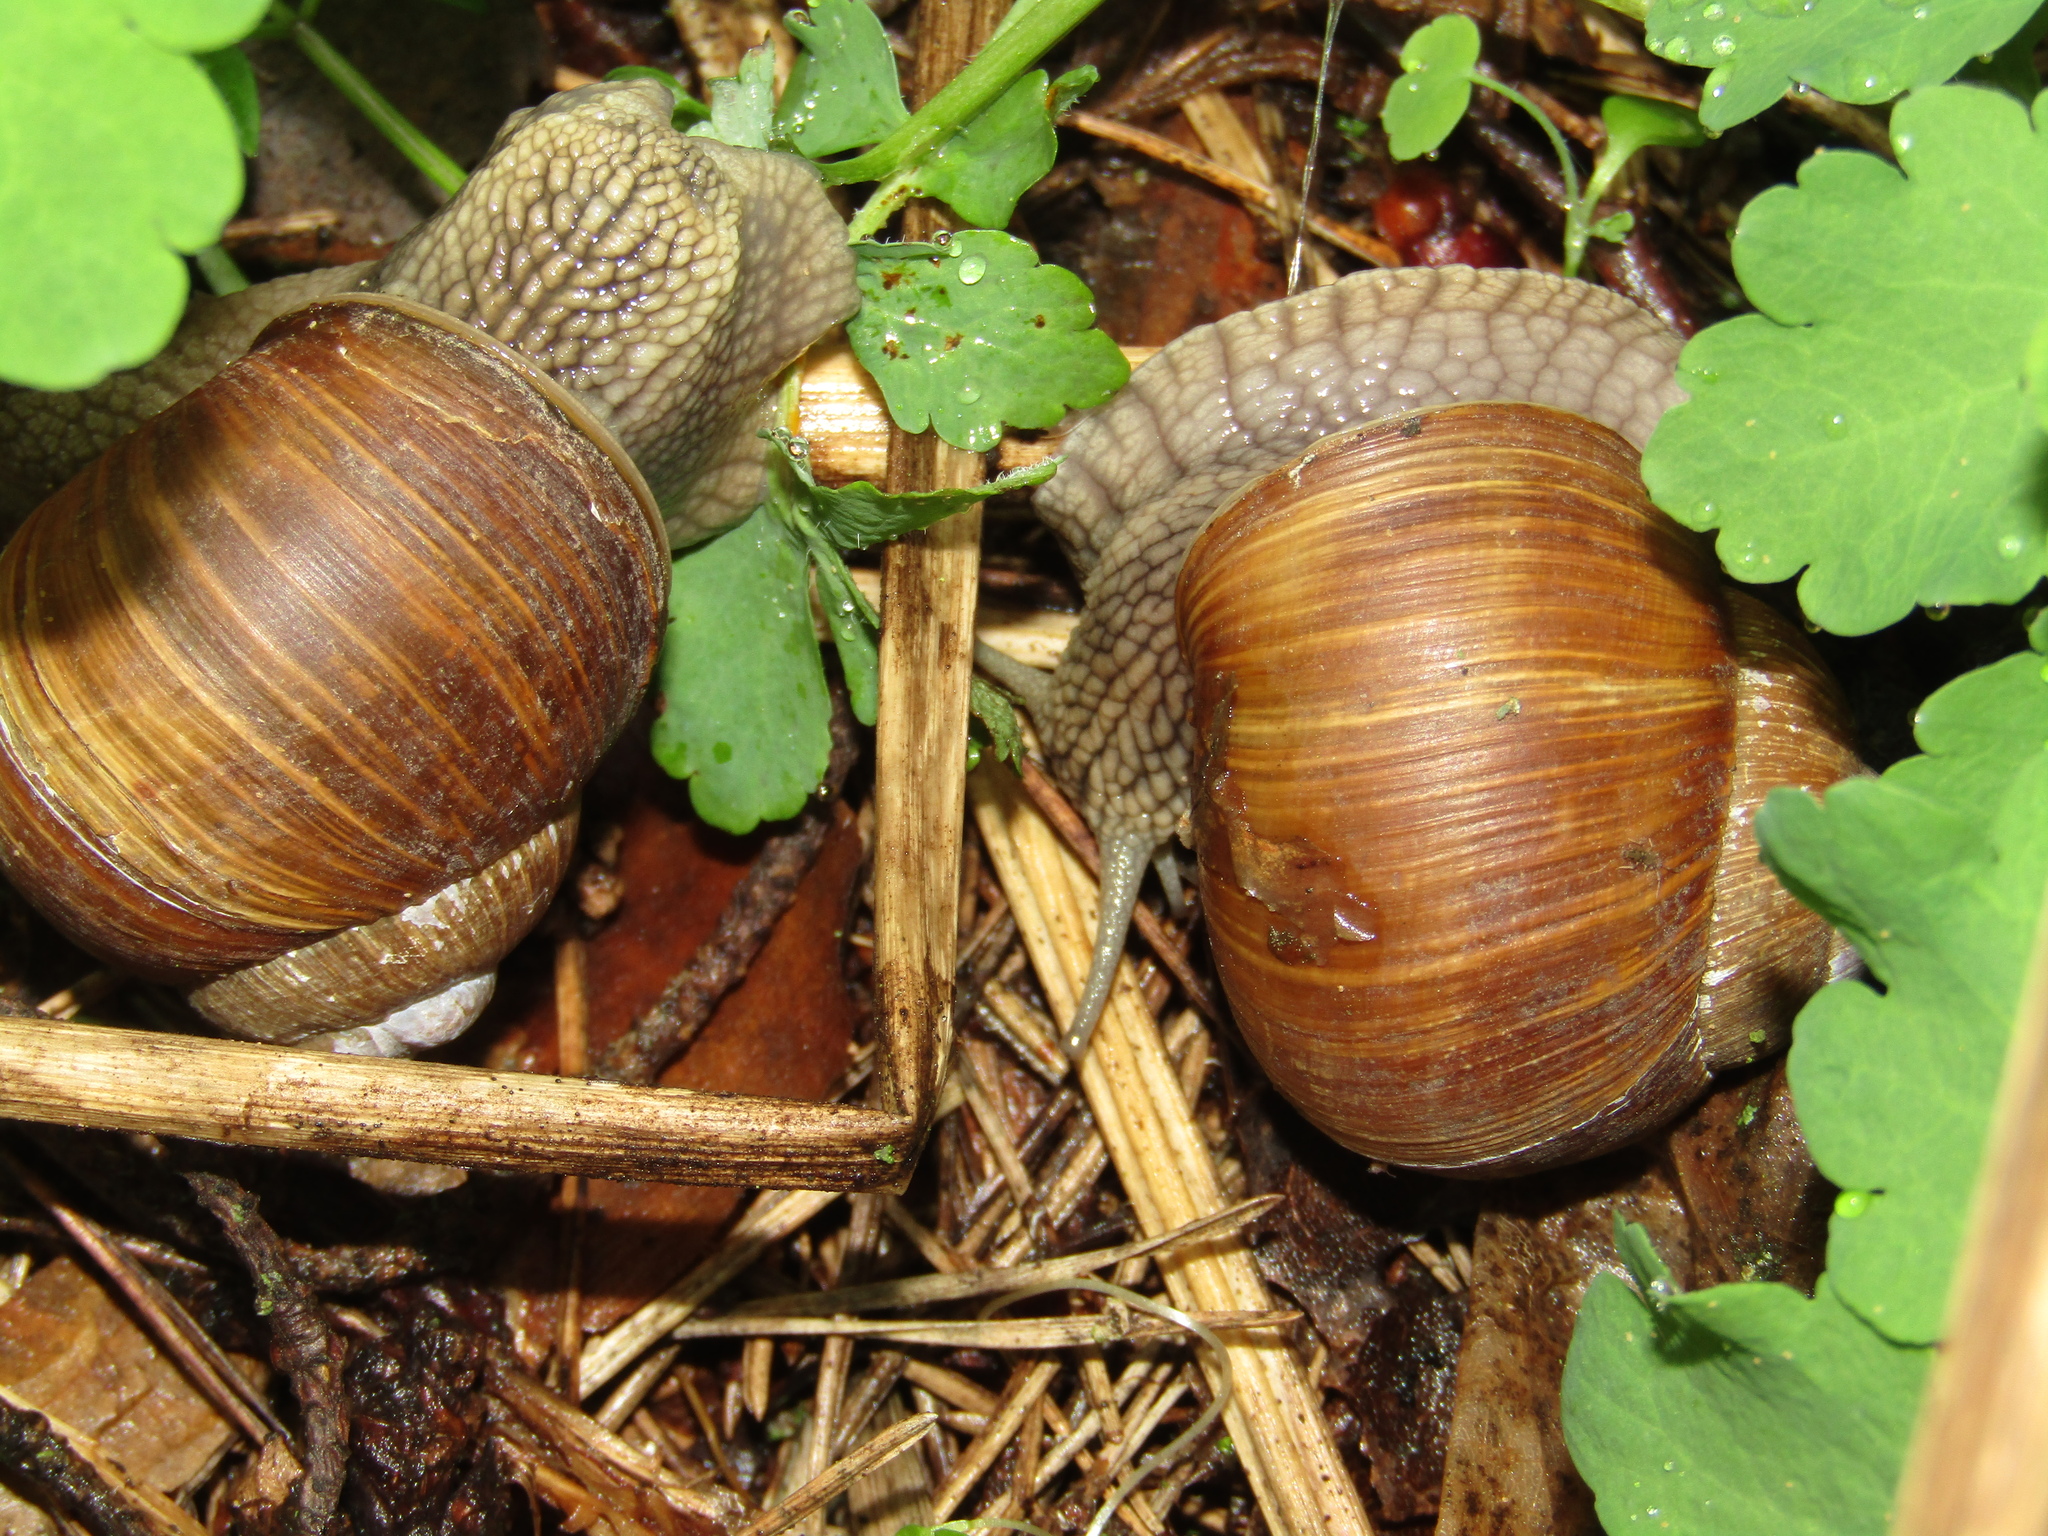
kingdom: Animalia
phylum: Mollusca
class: Gastropoda
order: Stylommatophora
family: Helicidae
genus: Helix
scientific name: Helix pomatia
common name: Roman snail
